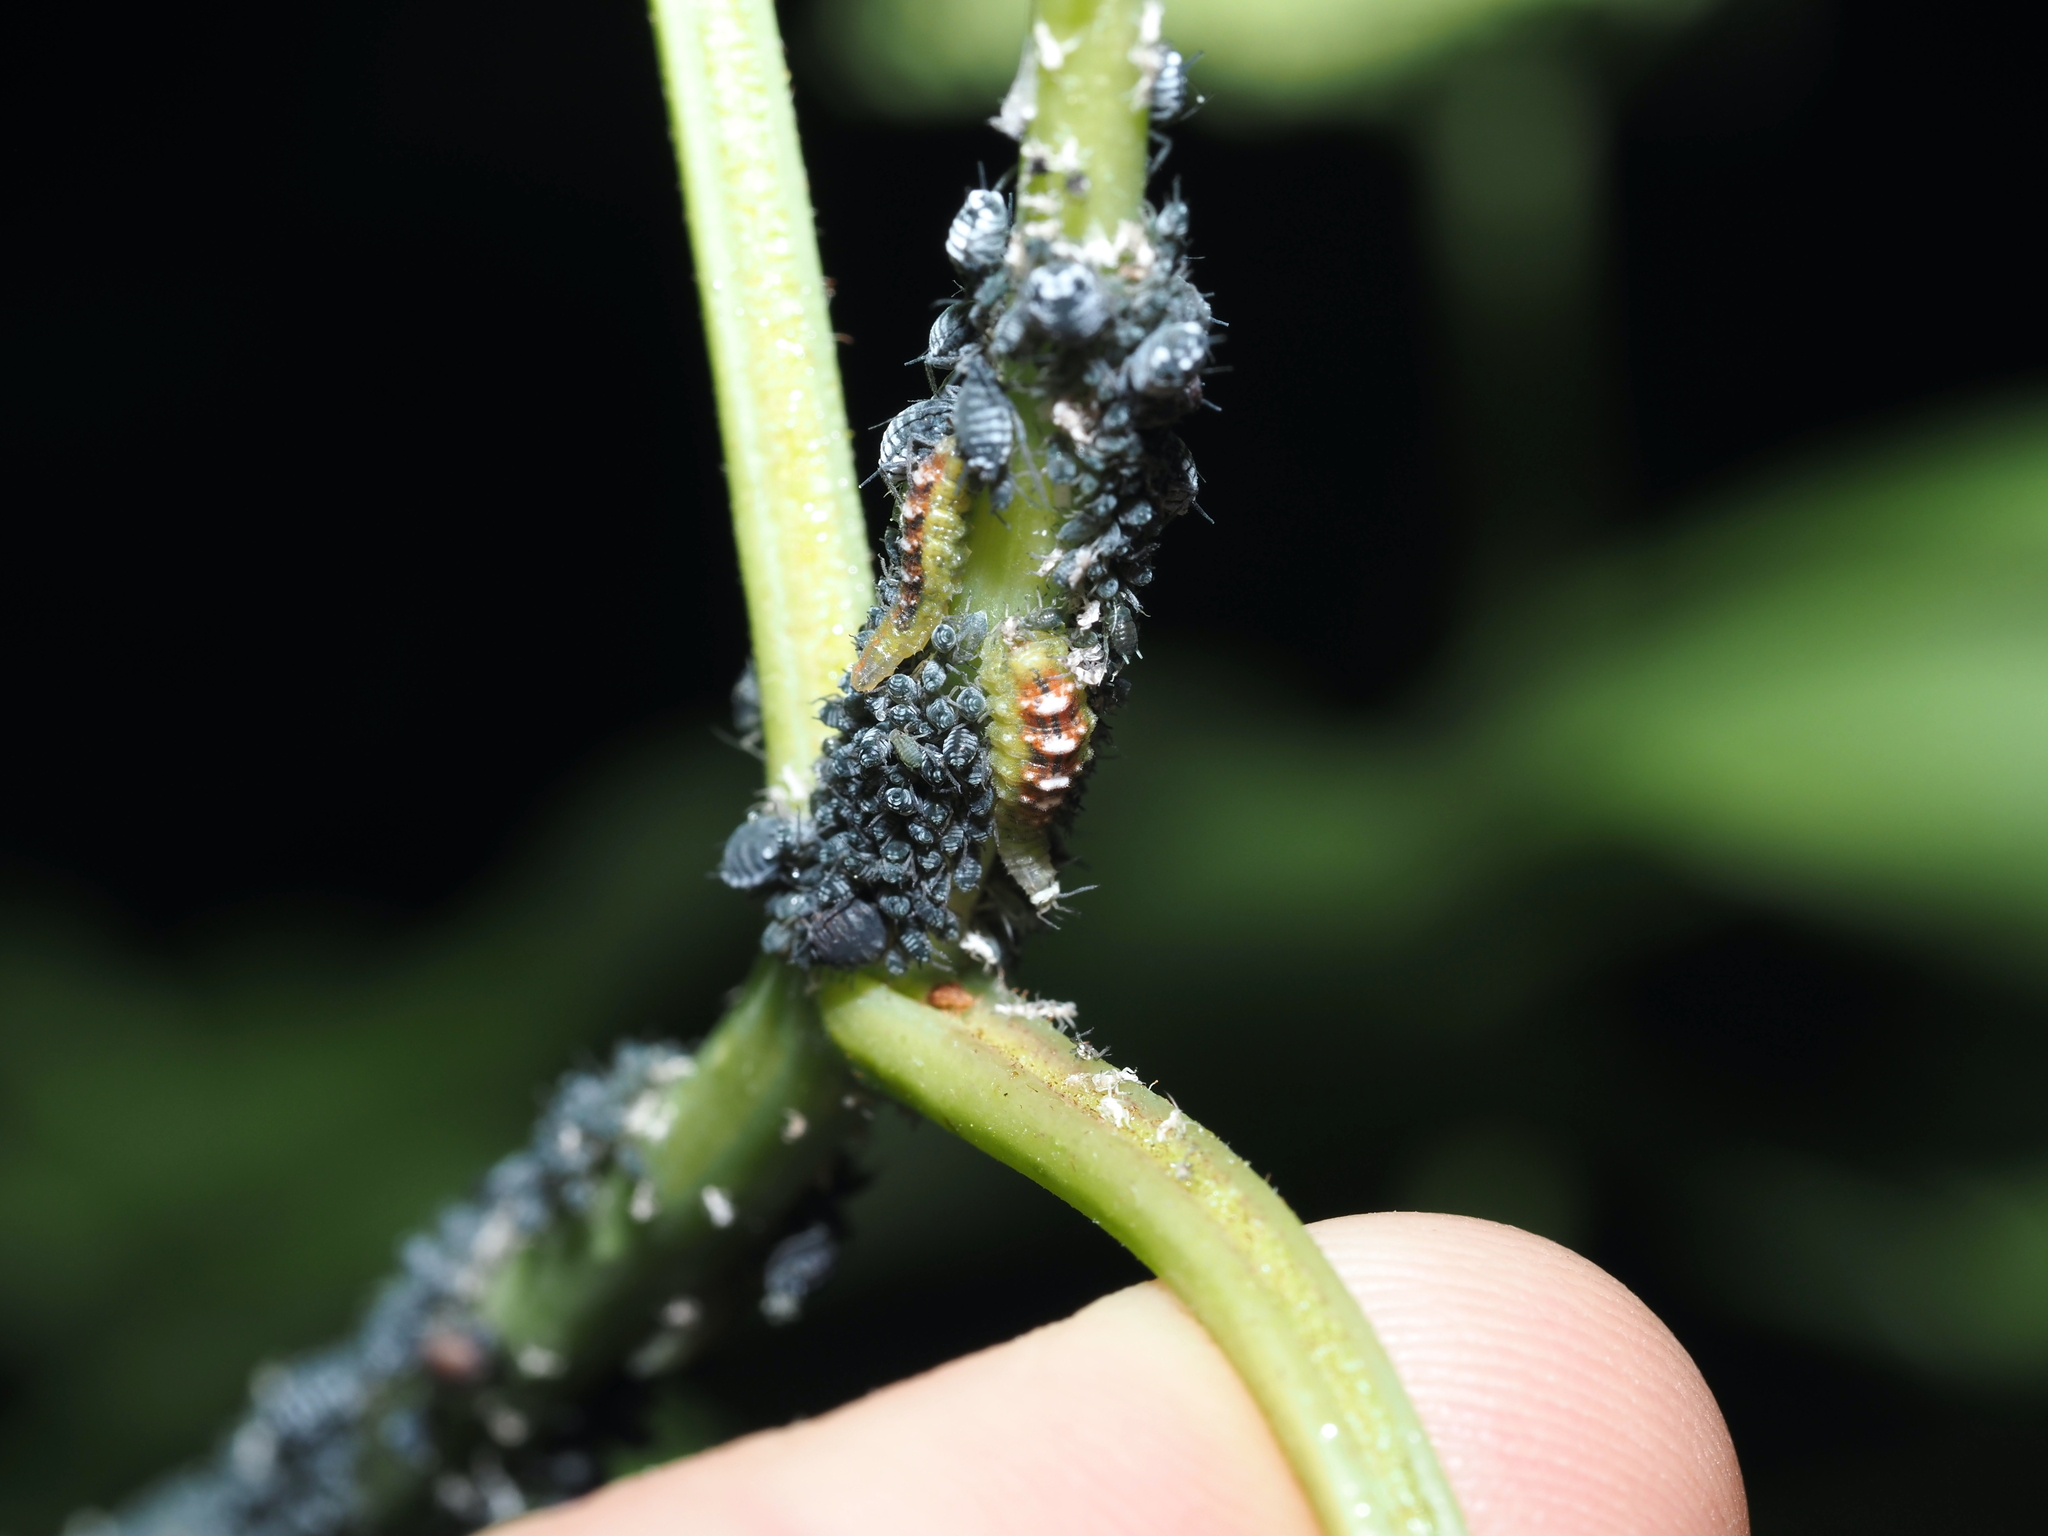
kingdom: Animalia
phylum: Arthropoda
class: Insecta
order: Diptera
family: Syrphidae
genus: Eupeodes
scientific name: Eupeodes pomus
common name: Short-tailed aphideater
